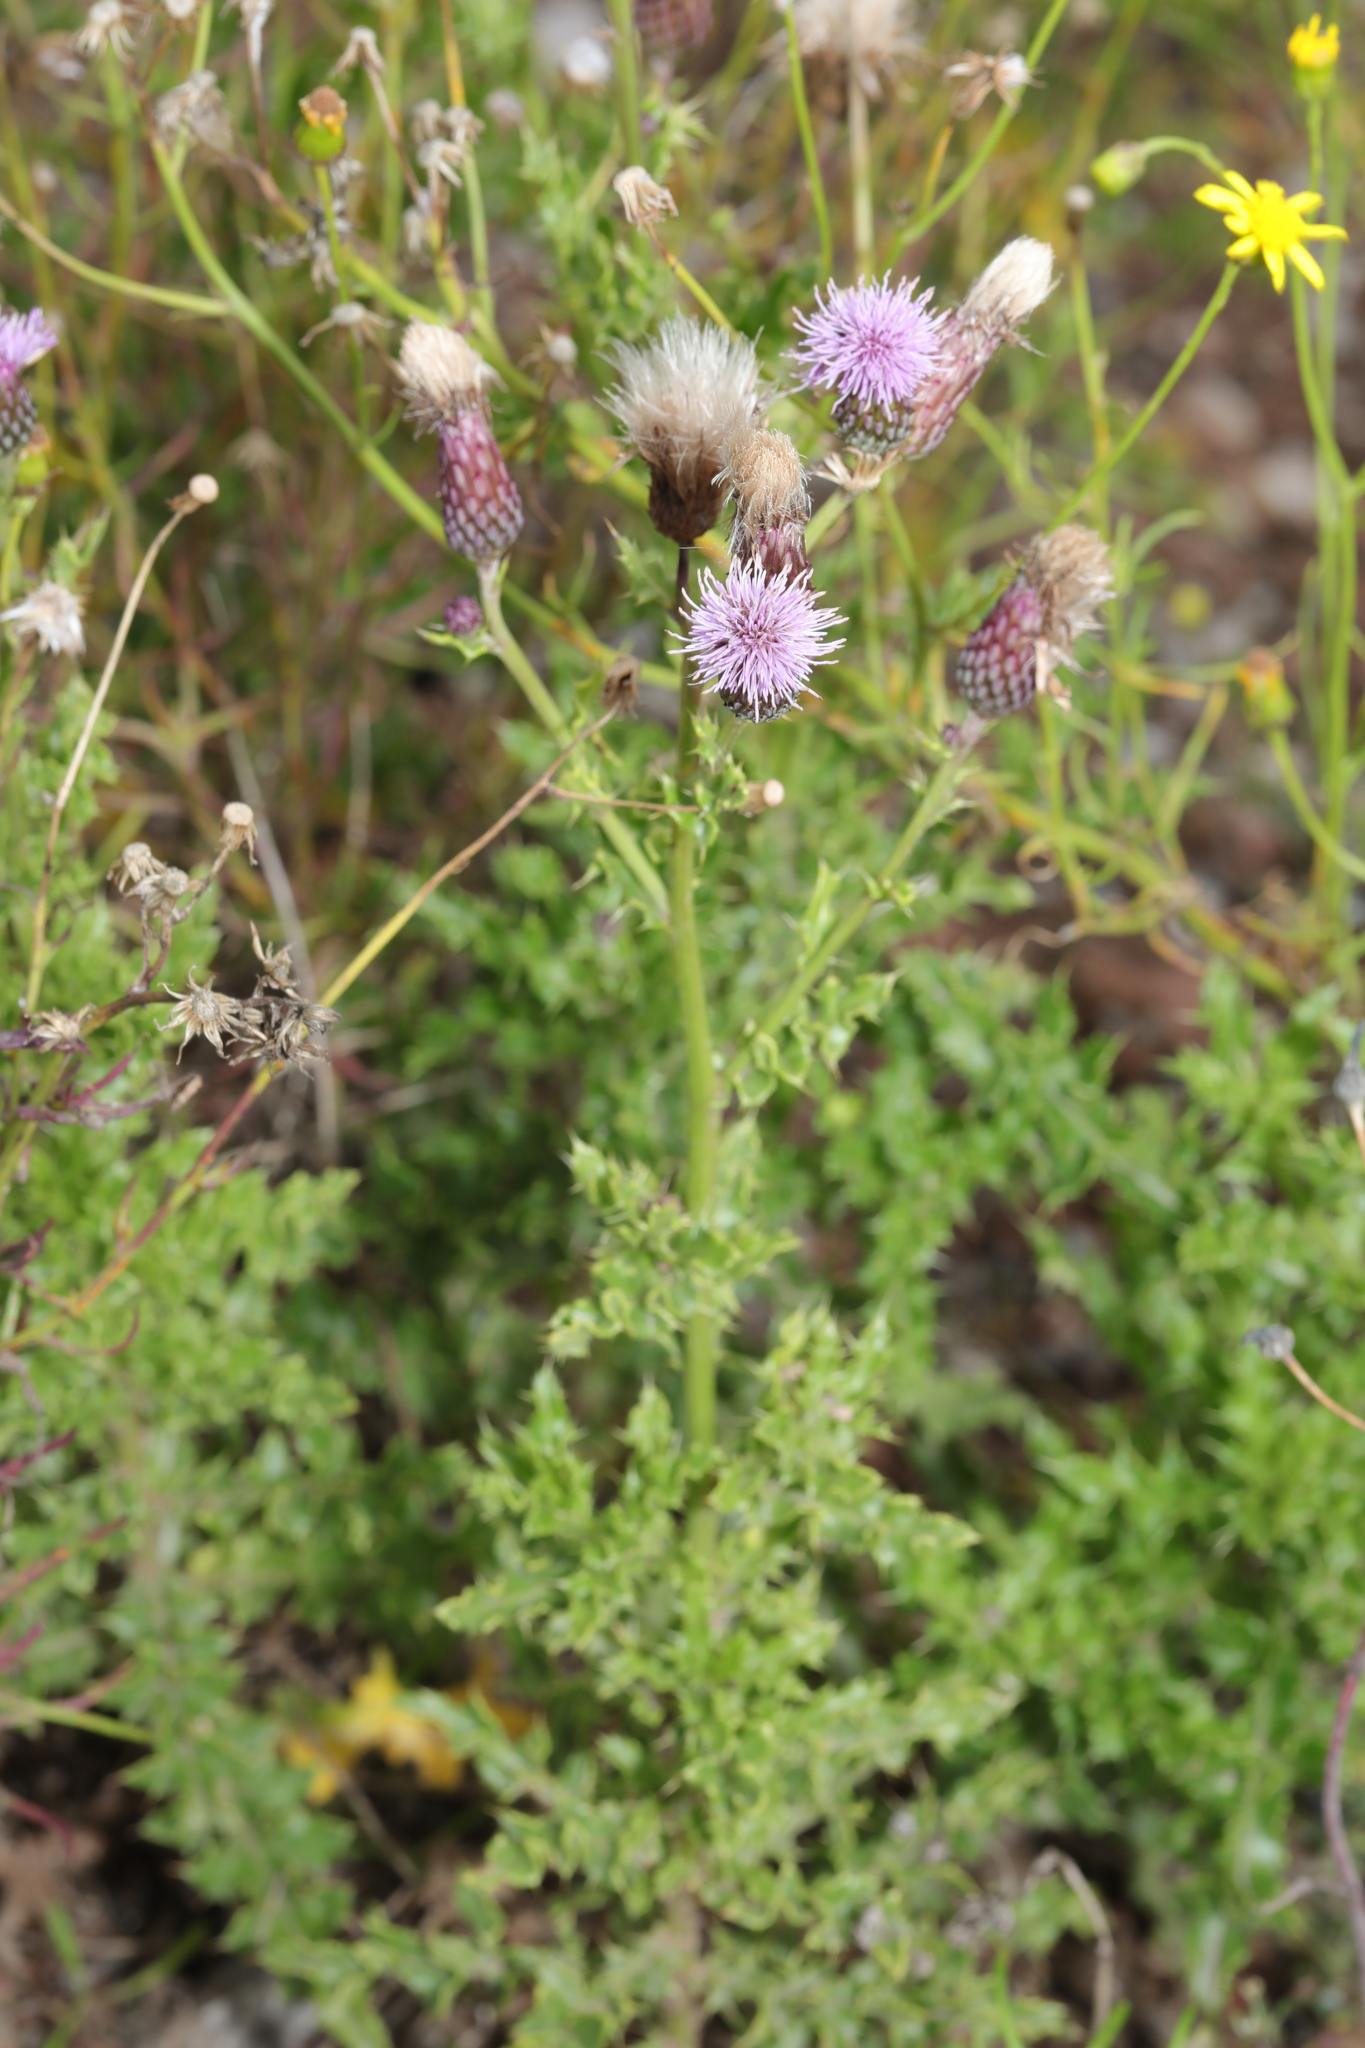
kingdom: Plantae
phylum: Tracheophyta
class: Magnoliopsida
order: Asterales
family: Asteraceae
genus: Cirsium
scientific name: Cirsium arvense
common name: Creeping thistle
